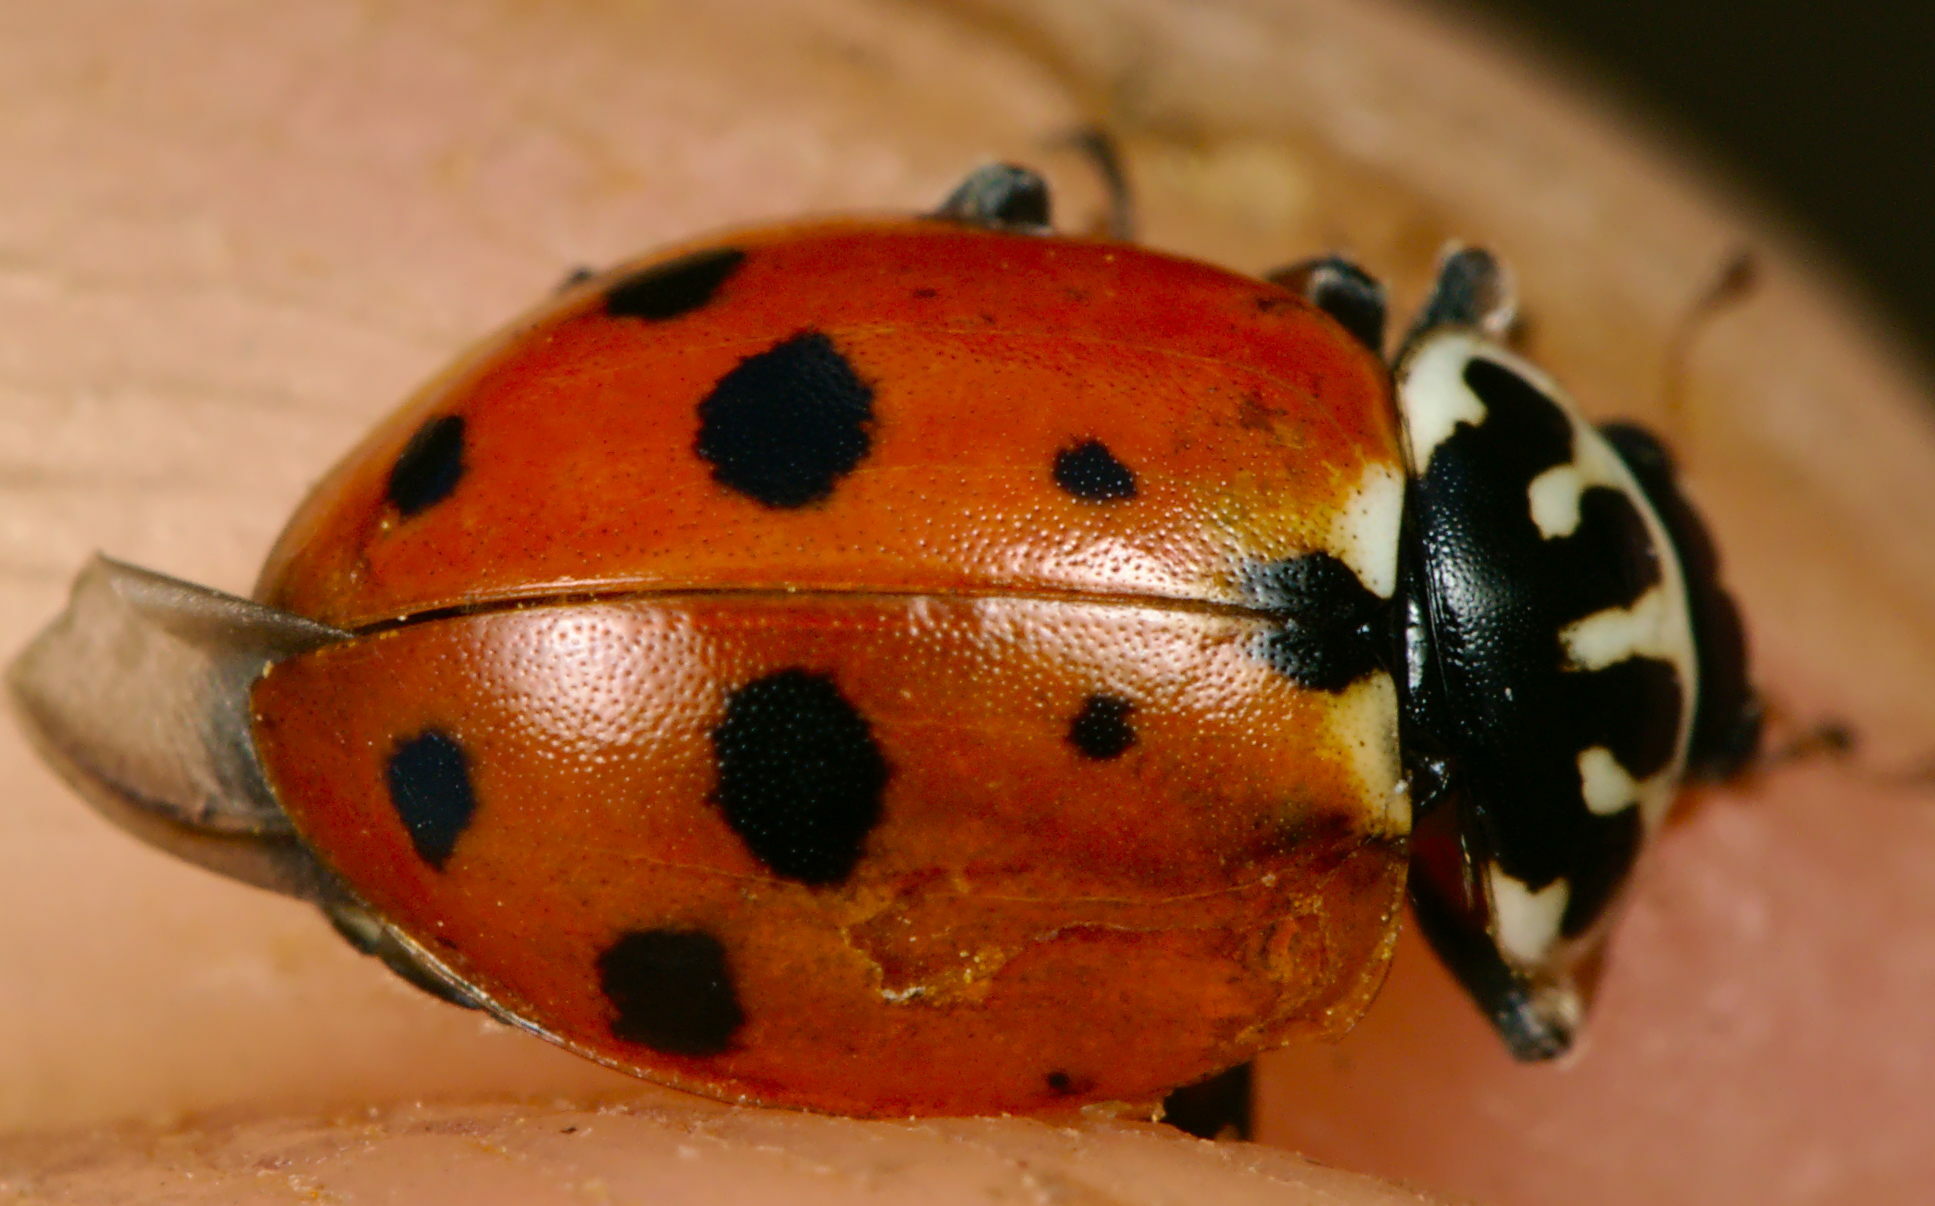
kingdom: Animalia
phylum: Arthropoda
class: Insecta
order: Coleoptera
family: Coccinellidae
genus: Hippodamia
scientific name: Hippodamia variegata
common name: Ladybird beetle
